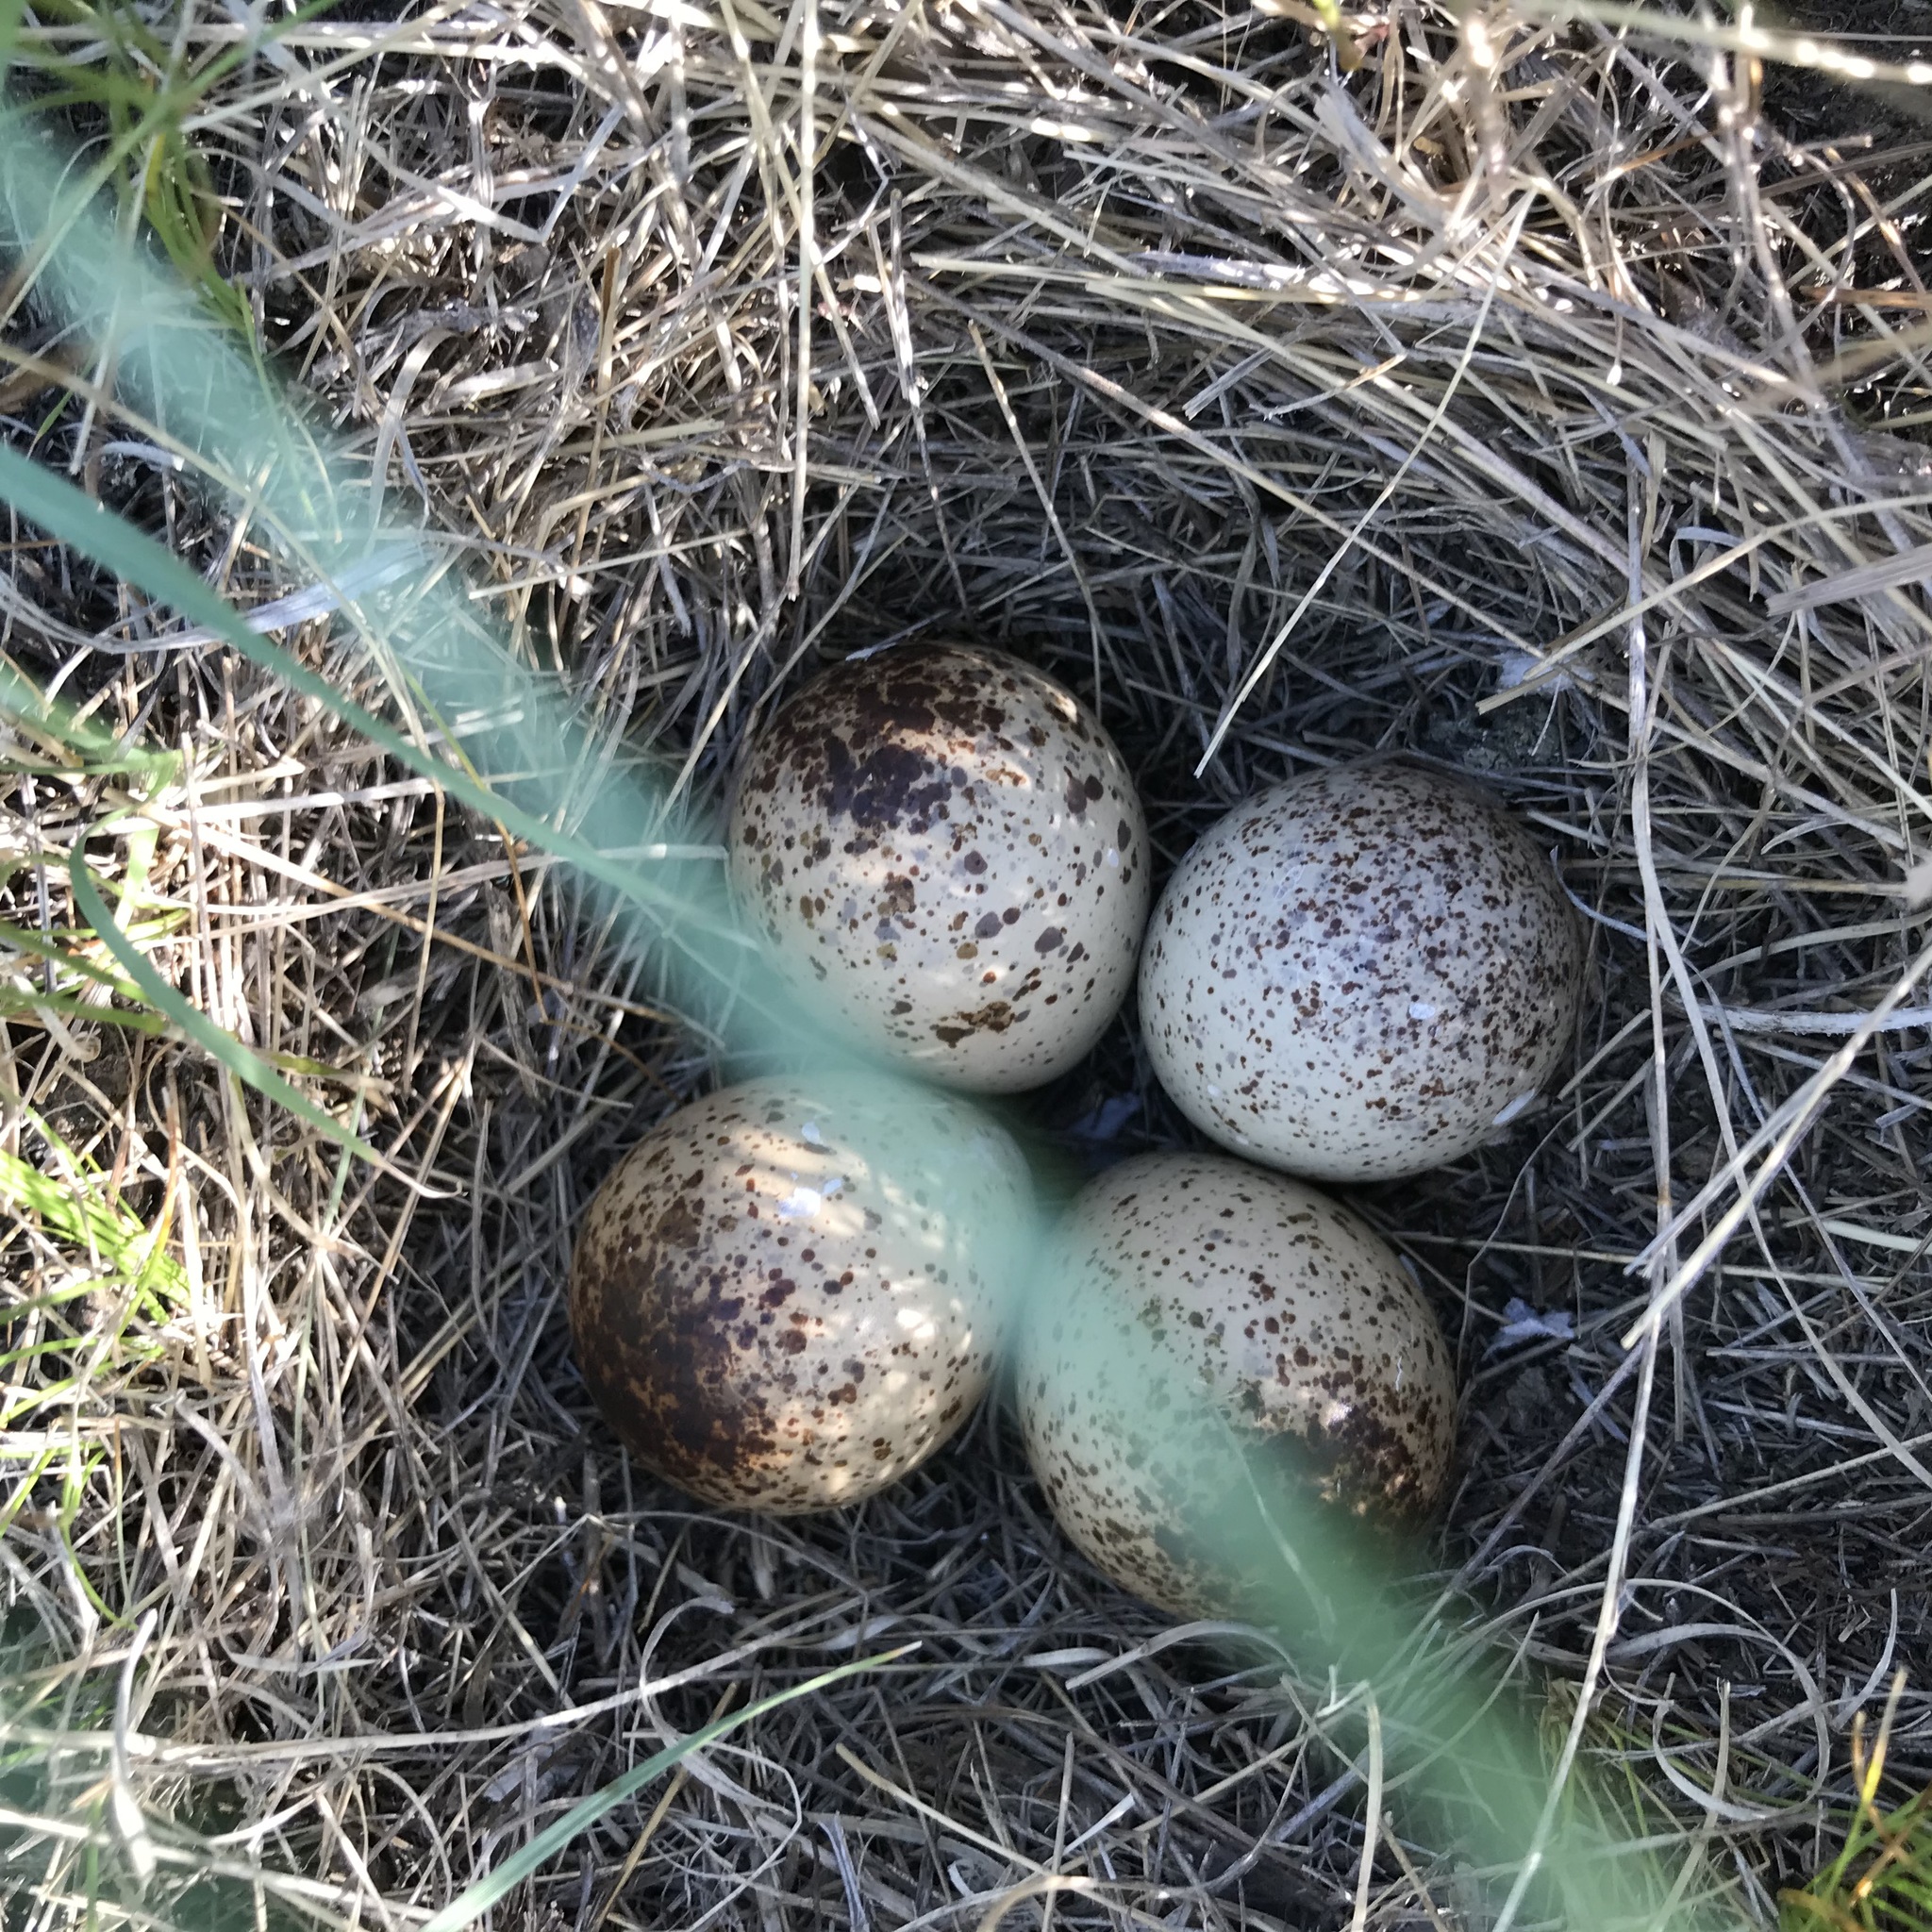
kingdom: Animalia
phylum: Chordata
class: Aves
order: Charadriiformes
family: Scolopacidae
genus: Bartramia
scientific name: Bartramia longicauda
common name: Upland sandpiper
